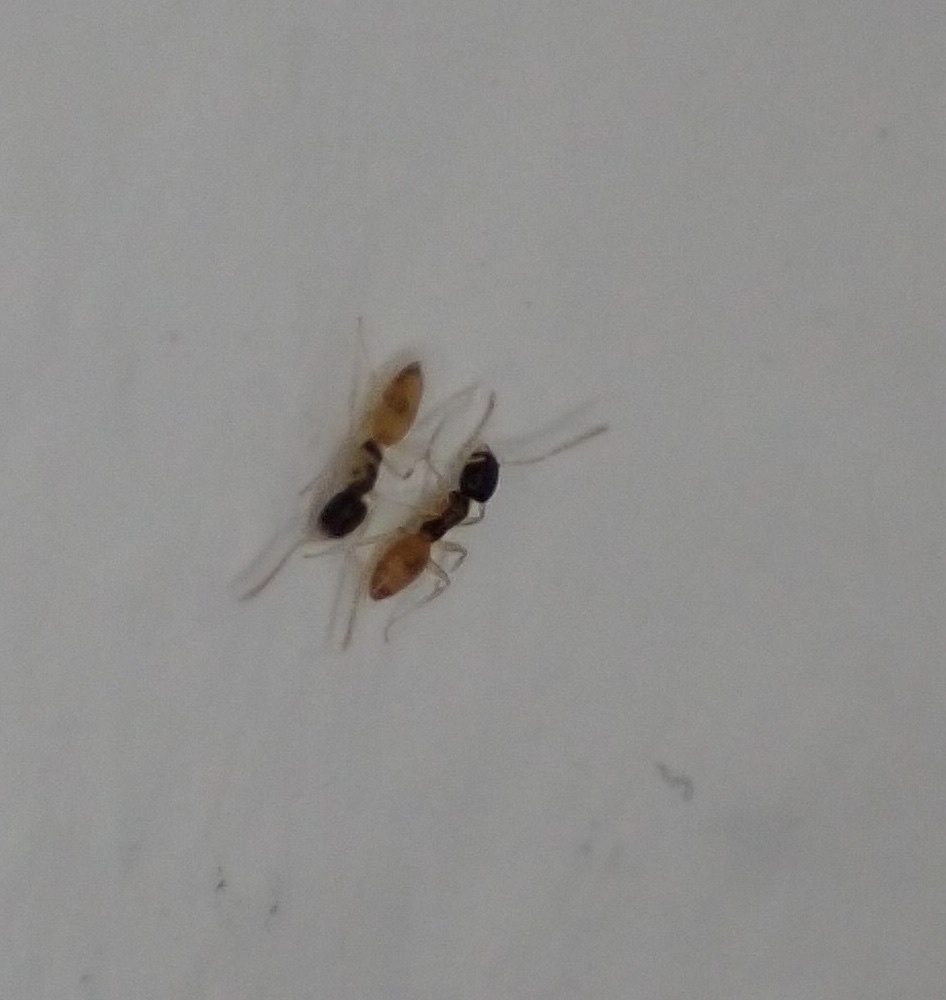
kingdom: Animalia
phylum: Arthropoda
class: Insecta
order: Hymenoptera
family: Formicidae
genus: Tapinoma
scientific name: Tapinoma melanocephalum
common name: Ghost ant
